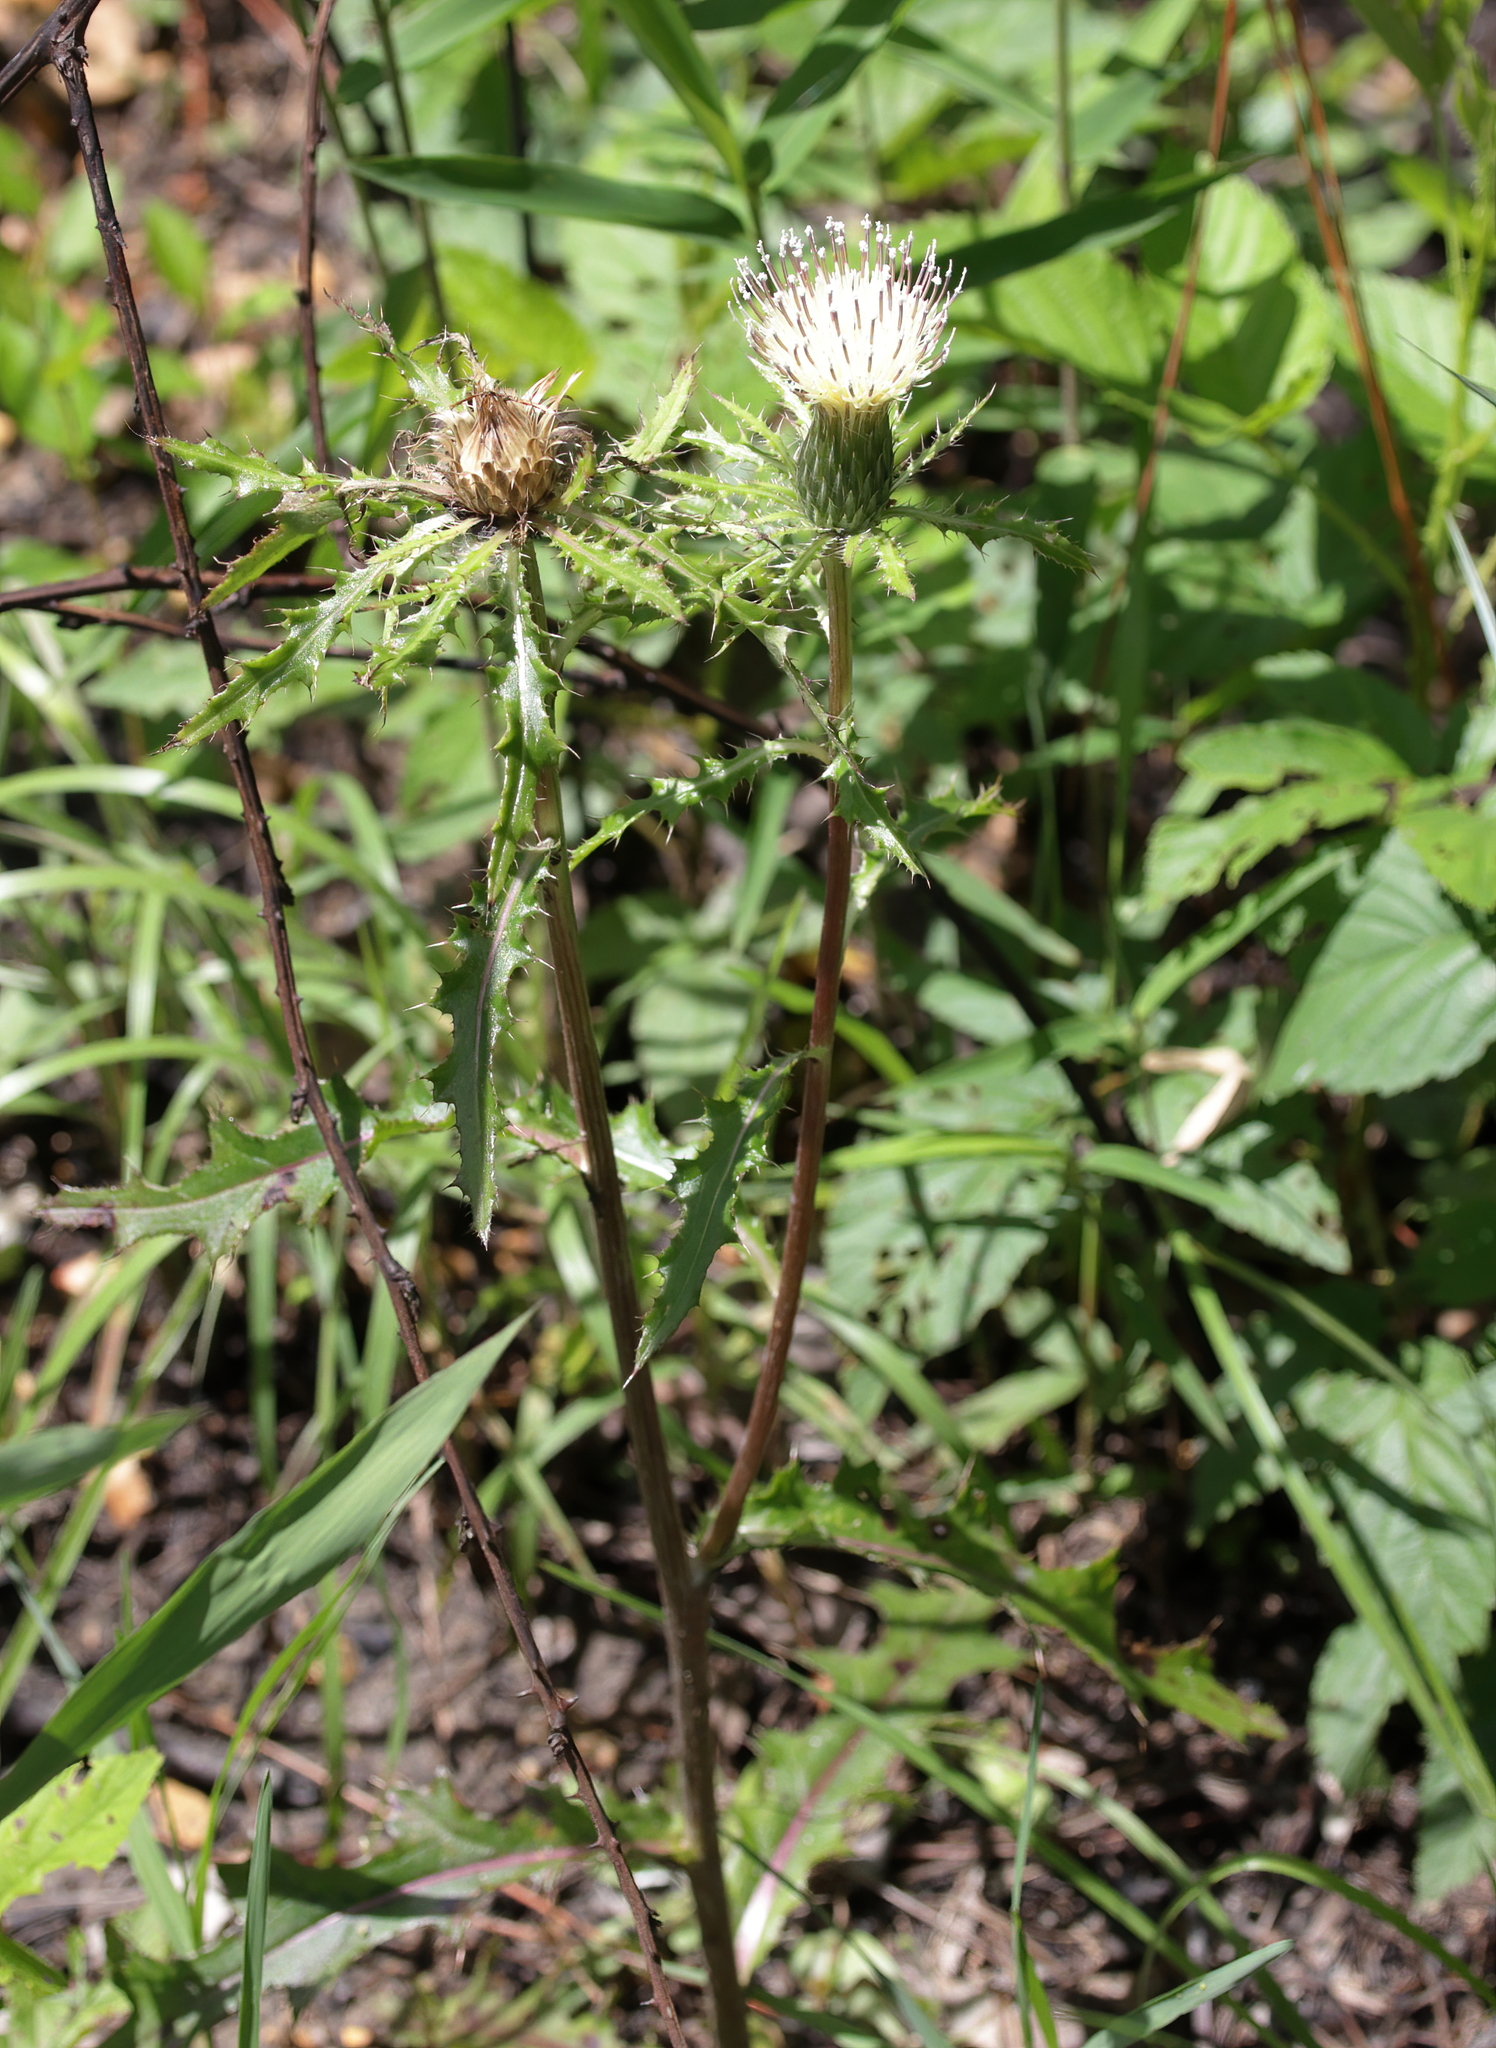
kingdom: Plantae
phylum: Tracheophyta
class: Magnoliopsida
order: Asterales
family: Asteraceae
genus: Cirsium
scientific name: Cirsium horridulum
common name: Bristly thistle
